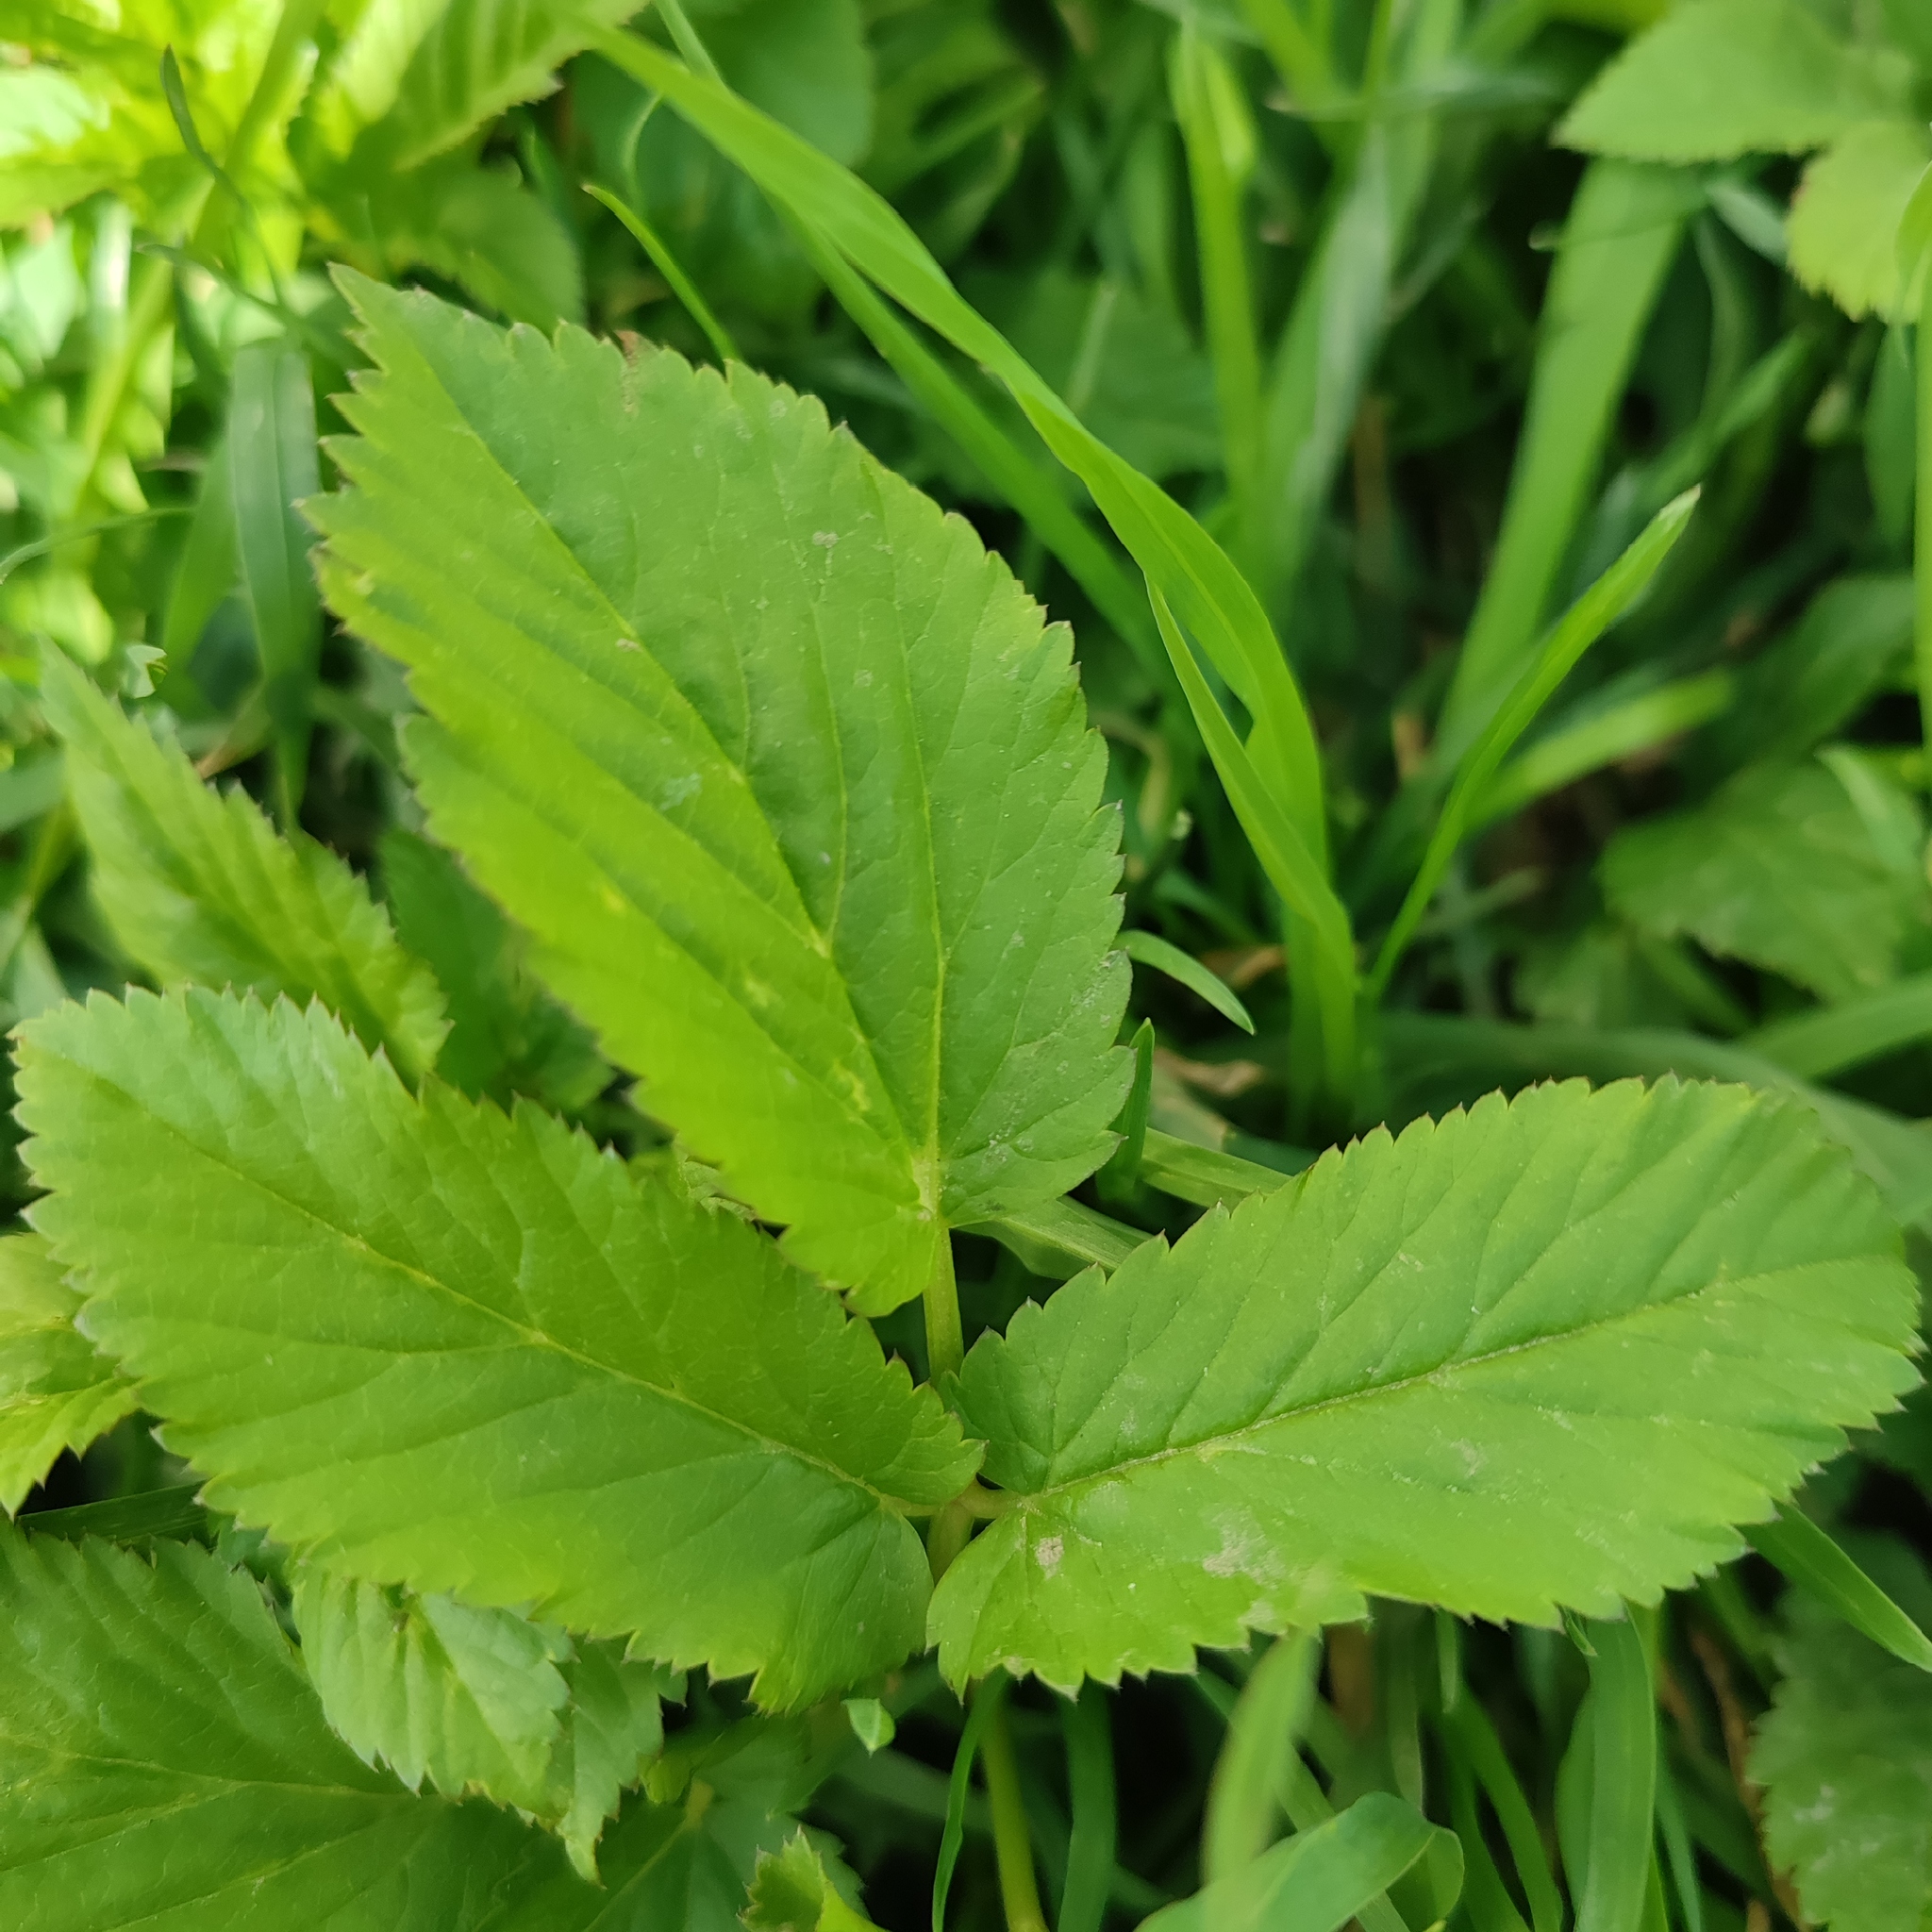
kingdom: Plantae
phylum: Tracheophyta
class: Magnoliopsida
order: Apiales
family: Apiaceae
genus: Aegopodium
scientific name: Aegopodium podagraria
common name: Ground-elder
